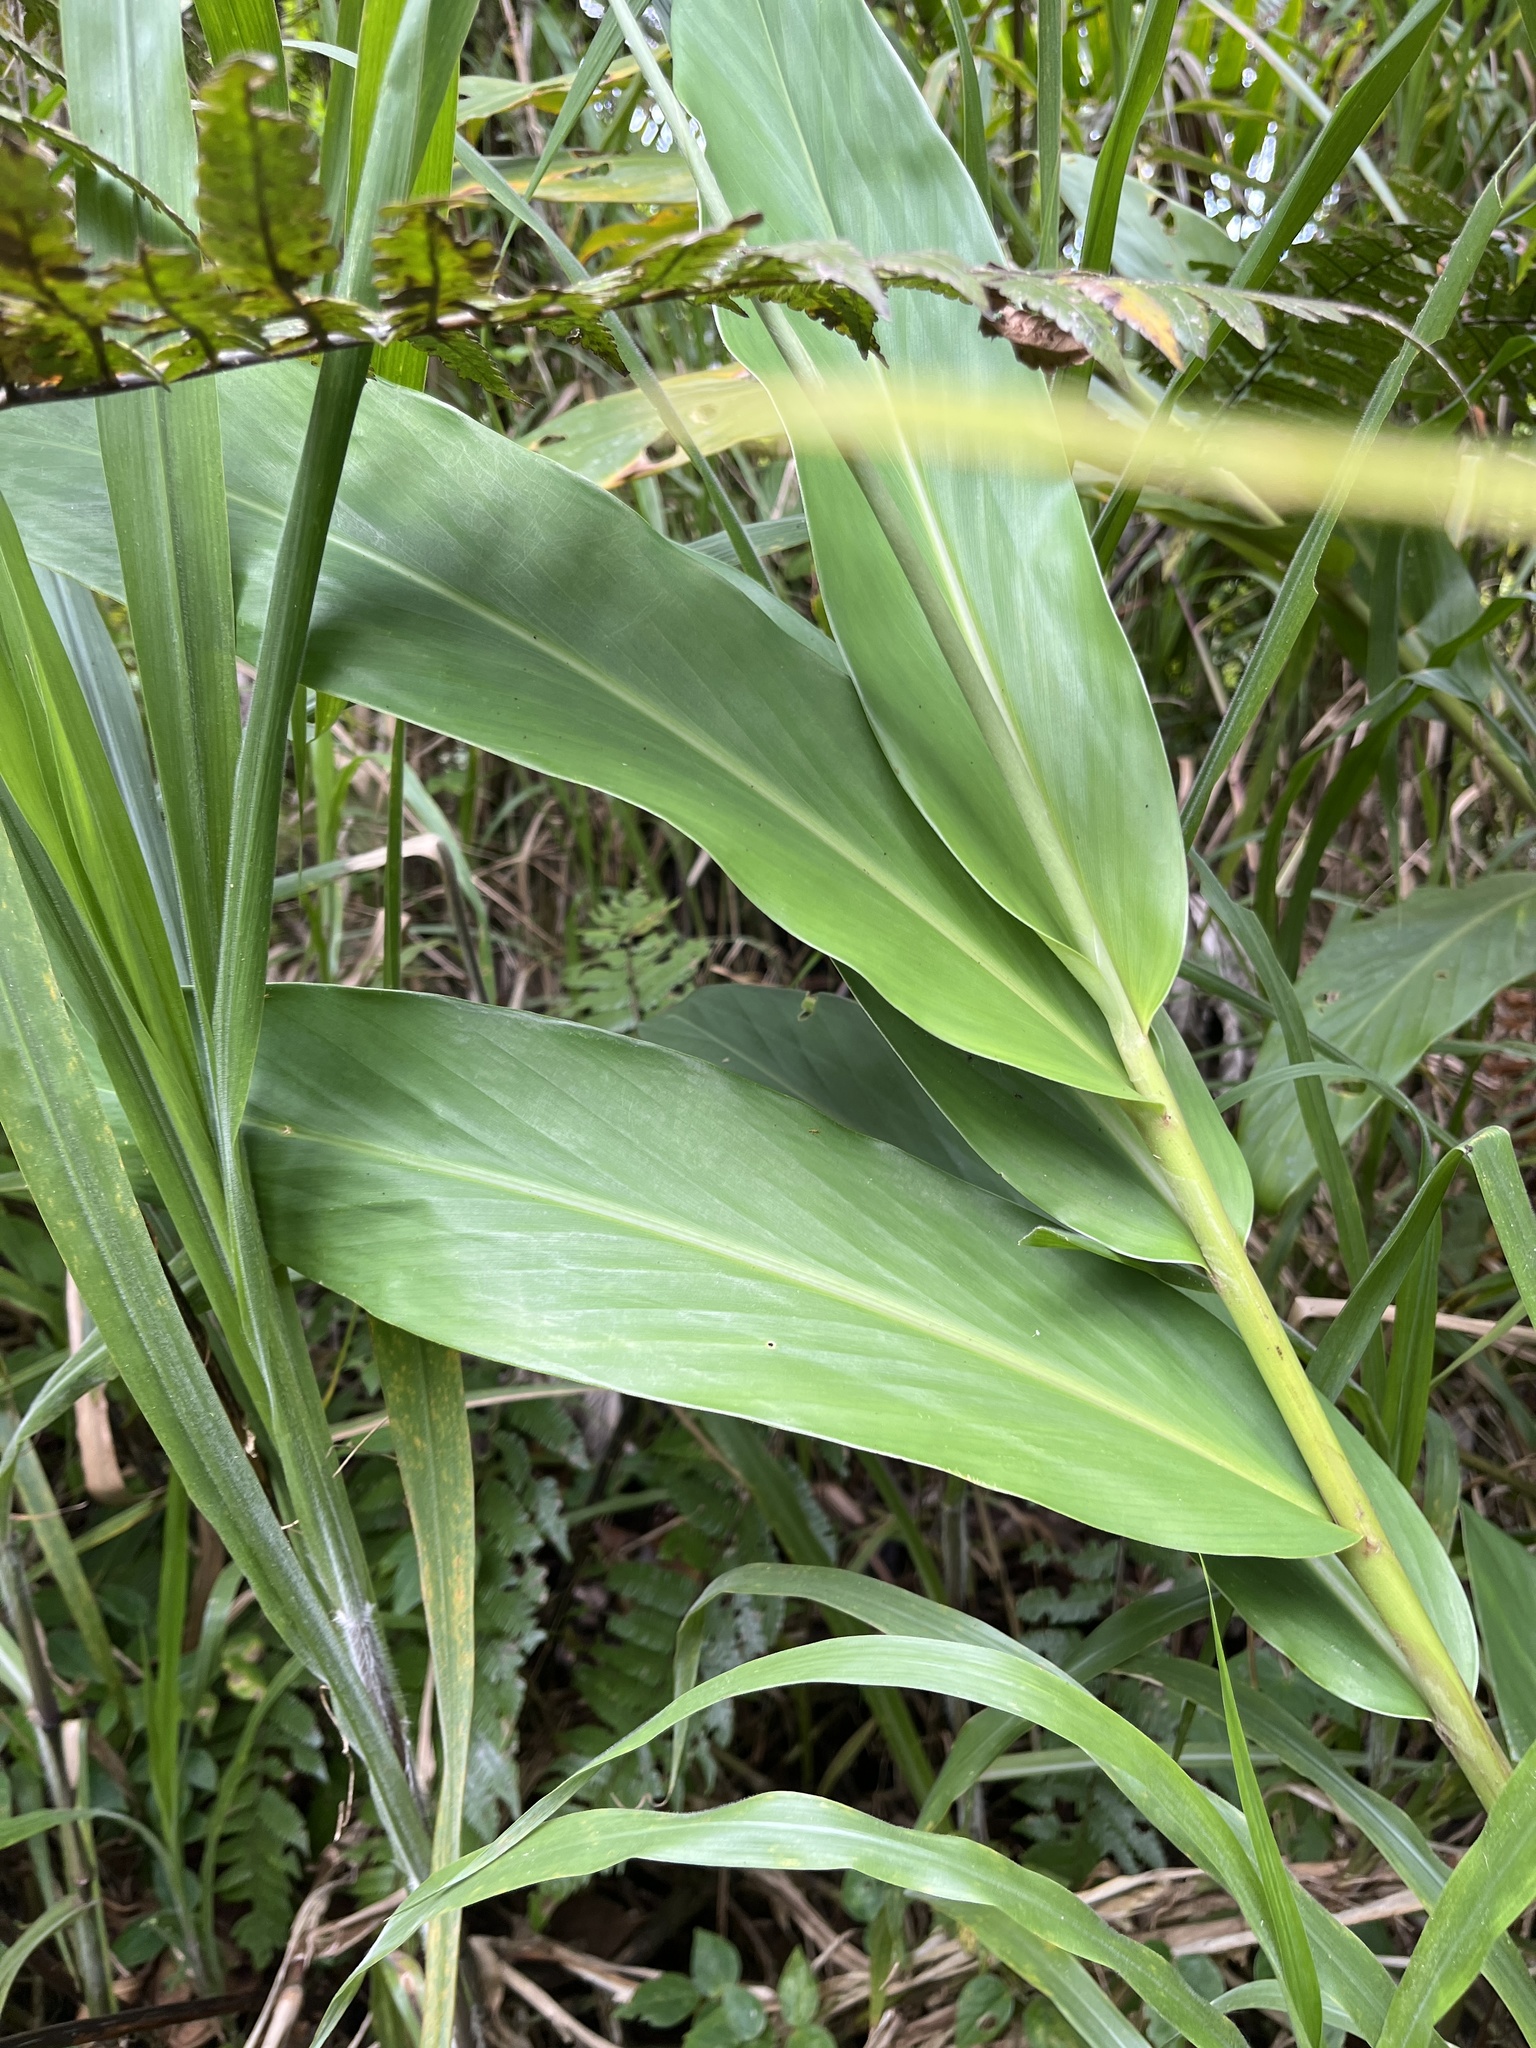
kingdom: Plantae
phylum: Tracheophyta
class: Liliopsida
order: Zingiberales
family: Zingiberaceae
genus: Hedychium
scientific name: Hedychium coronarium
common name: White garland-lily
